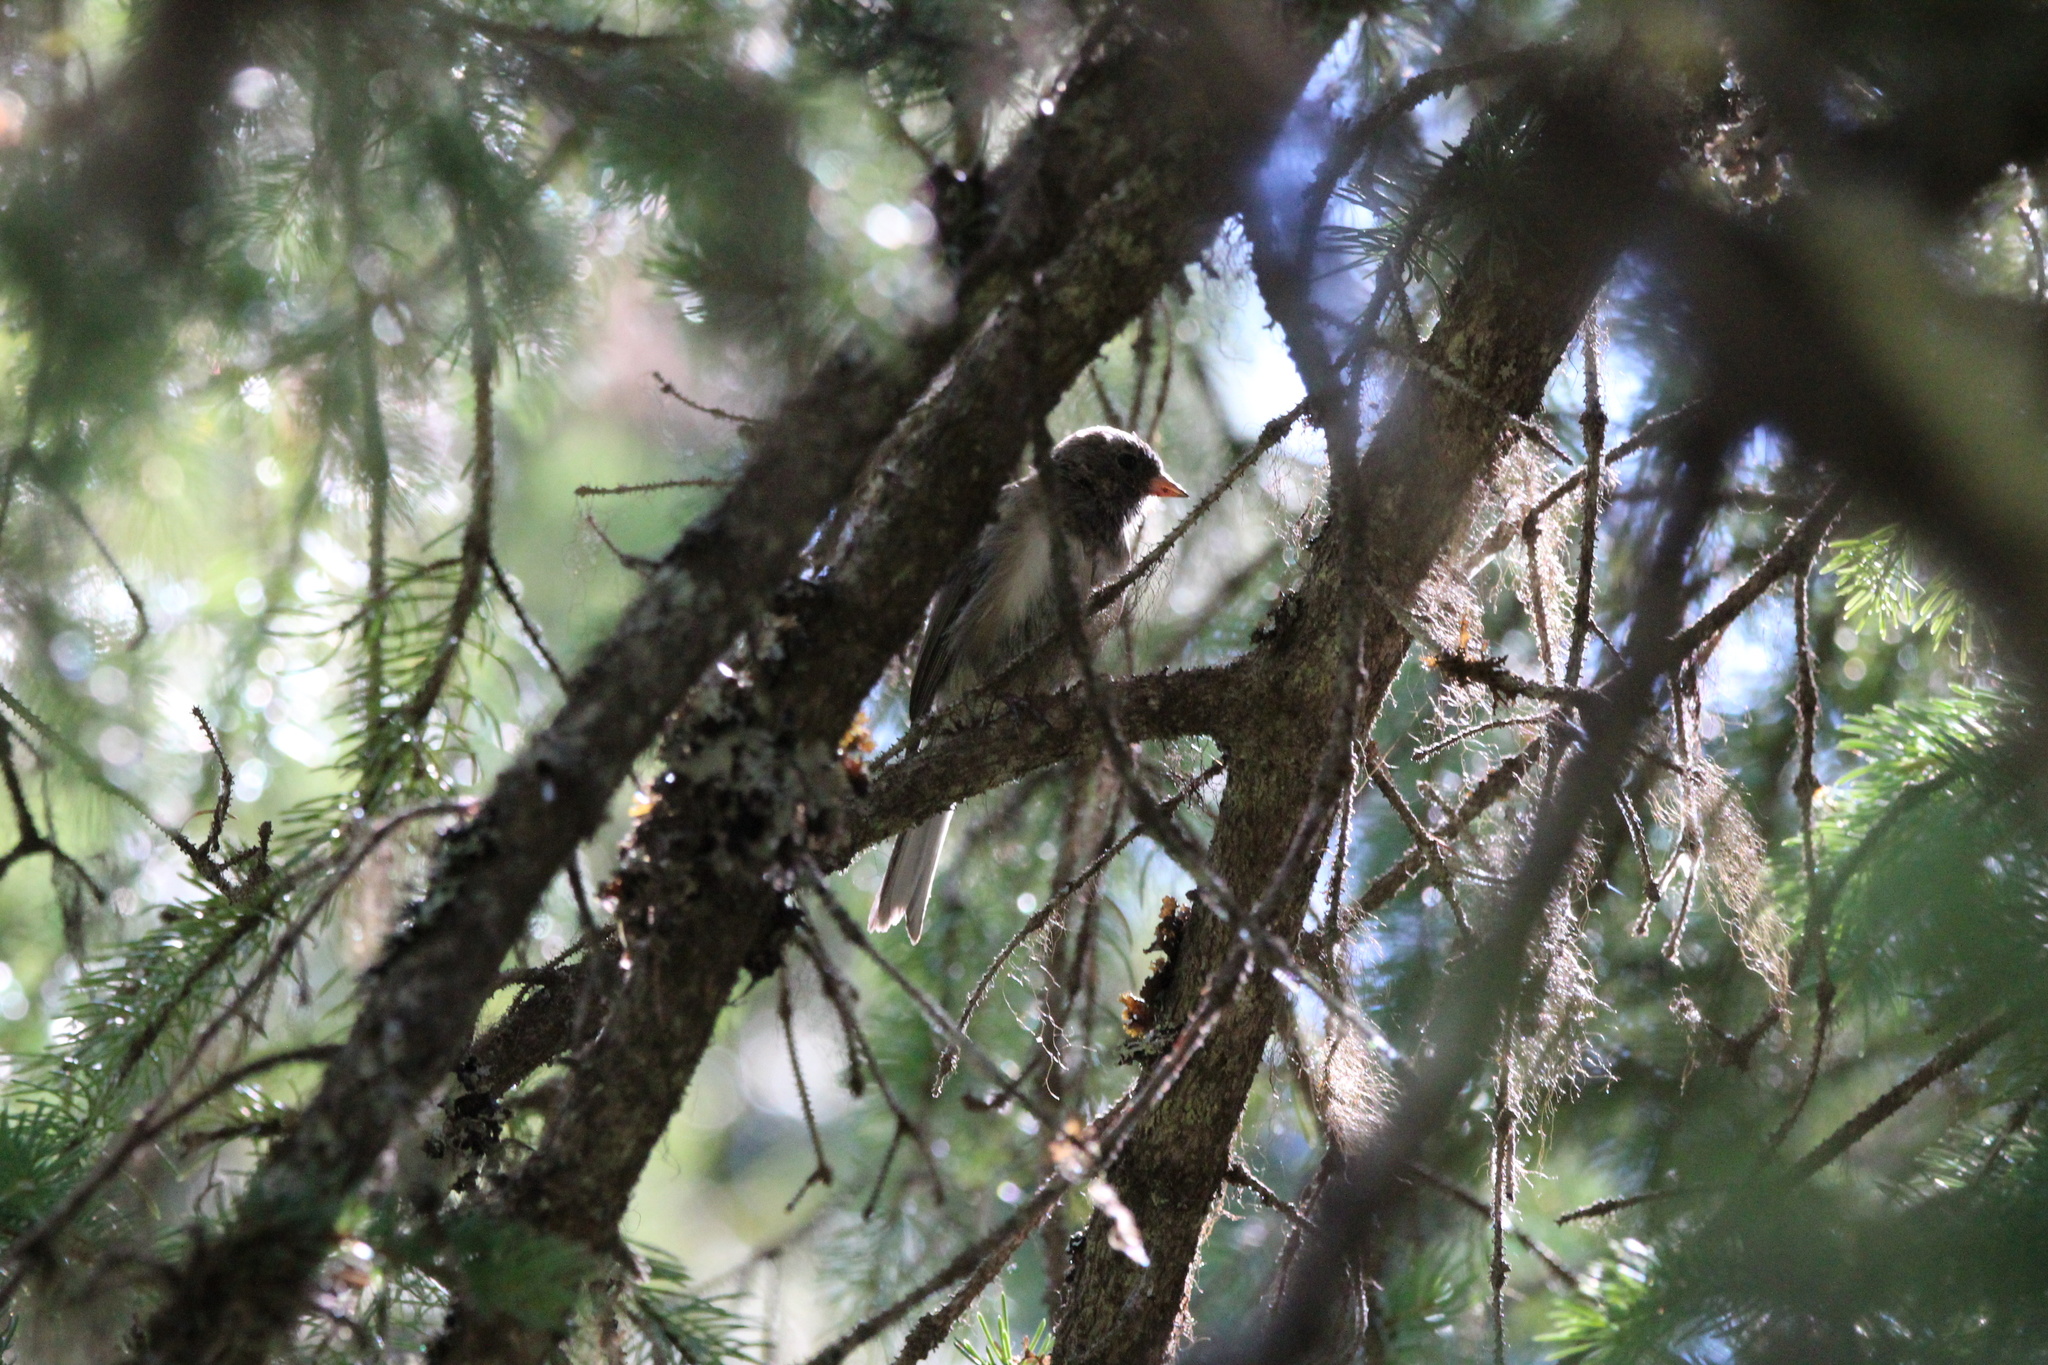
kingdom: Animalia
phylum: Chordata
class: Aves
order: Passeriformes
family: Passerellidae
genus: Junco
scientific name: Junco hyemalis
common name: Dark-eyed junco
